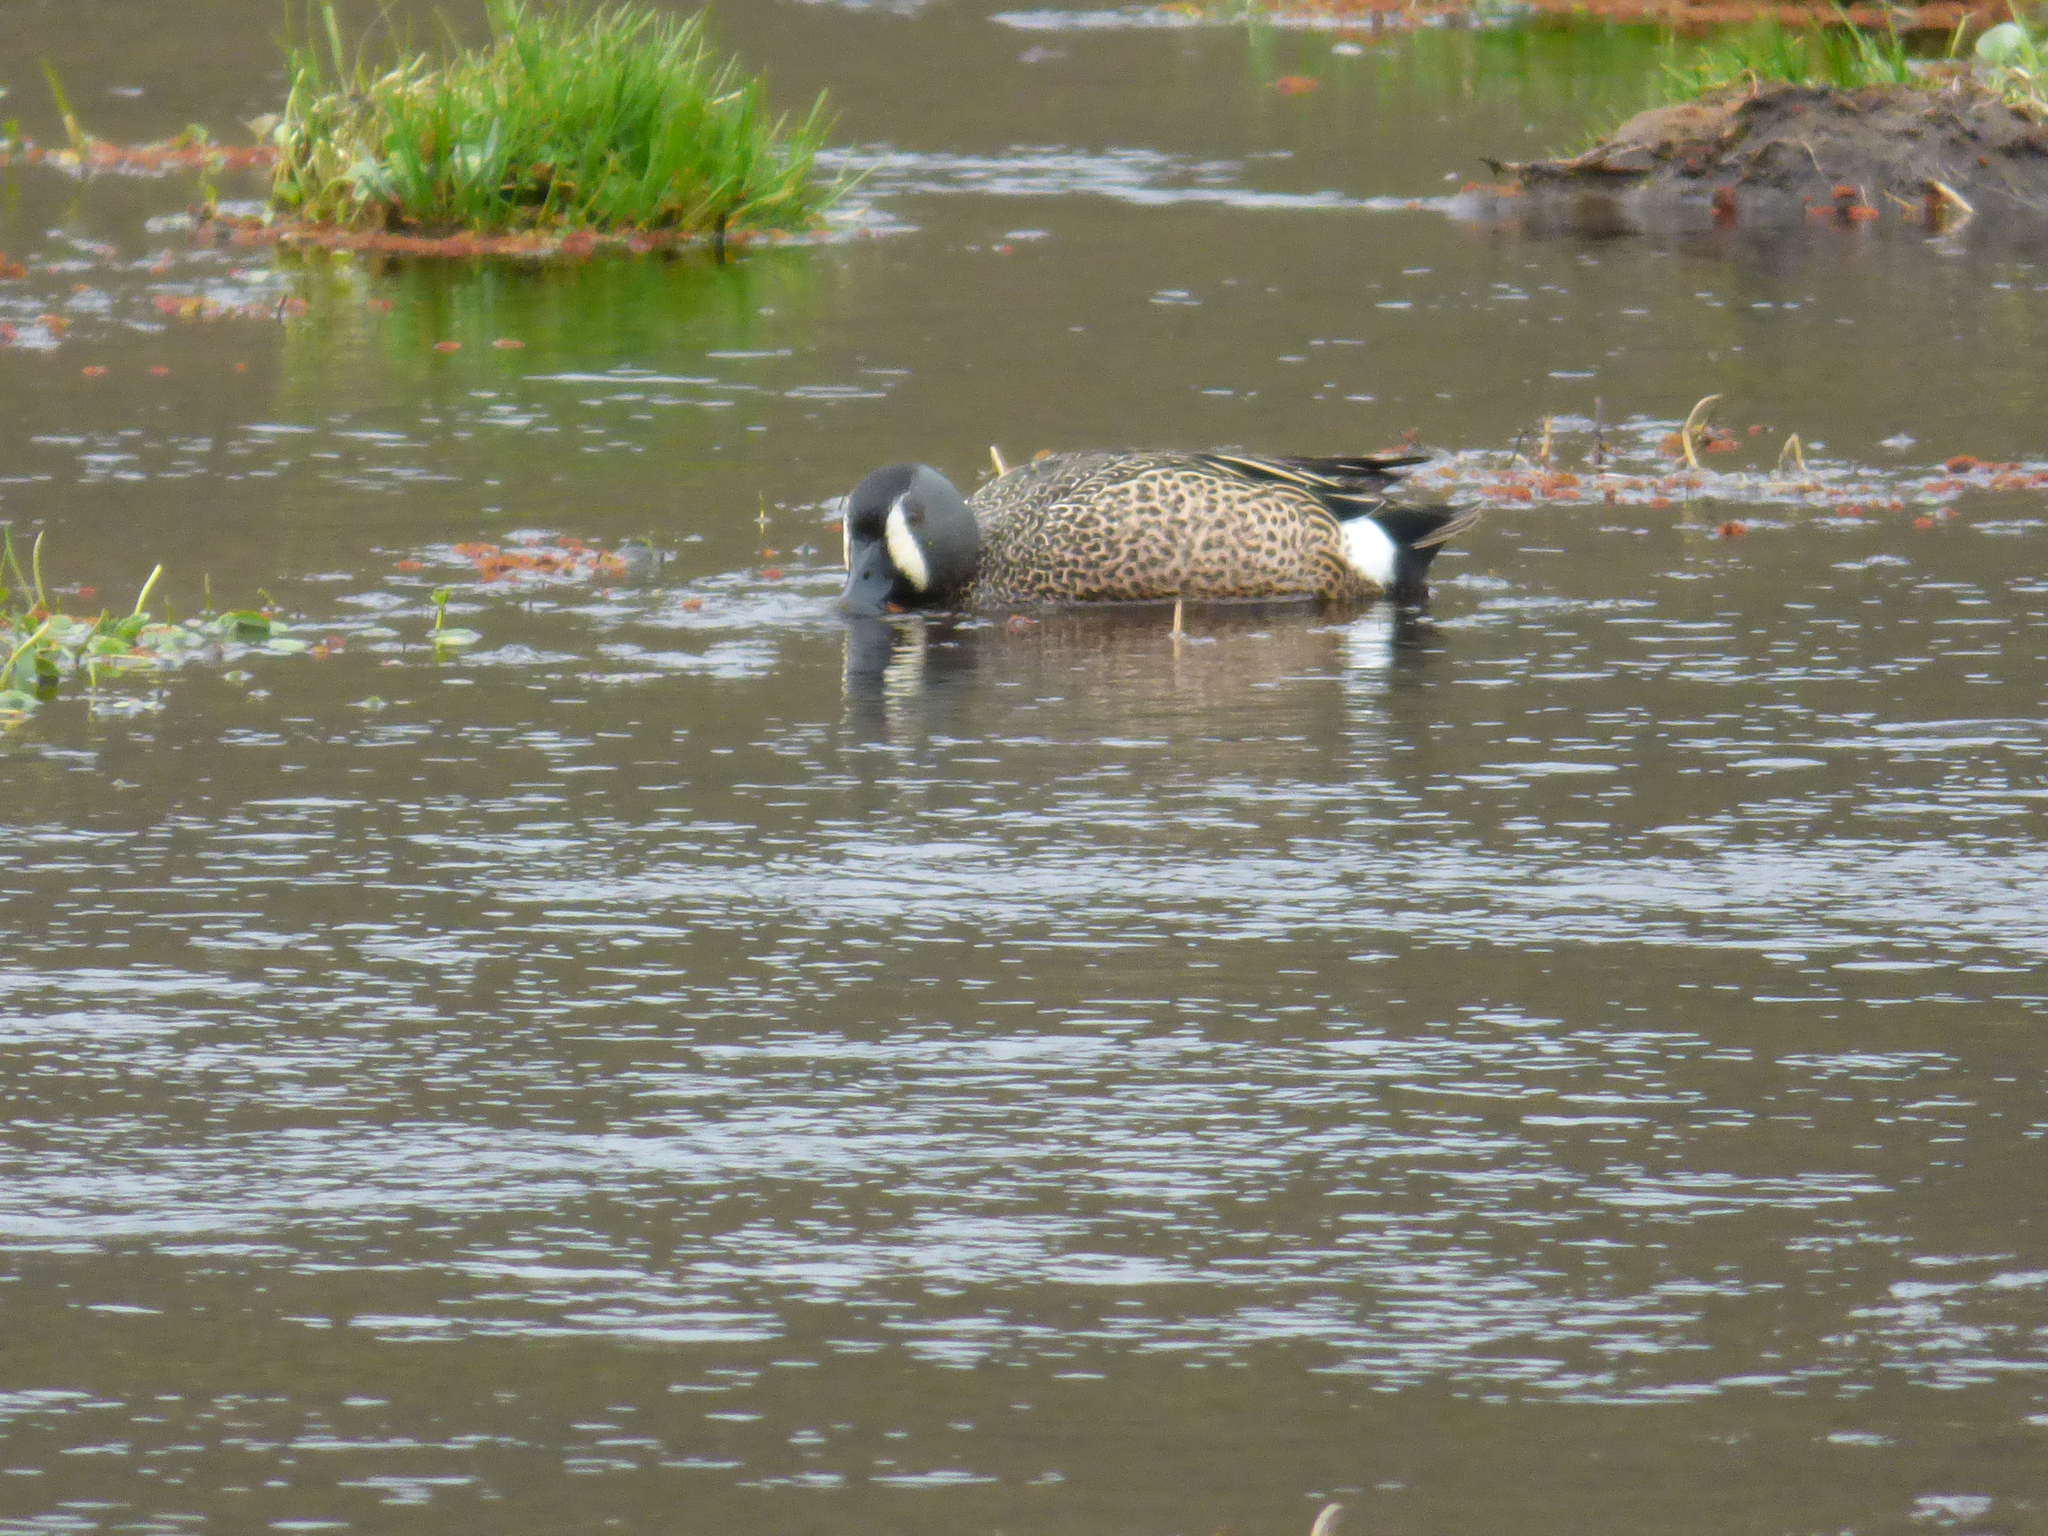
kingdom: Animalia
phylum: Chordata
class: Aves
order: Anseriformes
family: Anatidae
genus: Spatula
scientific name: Spatula discors
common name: Blue-winged teal
